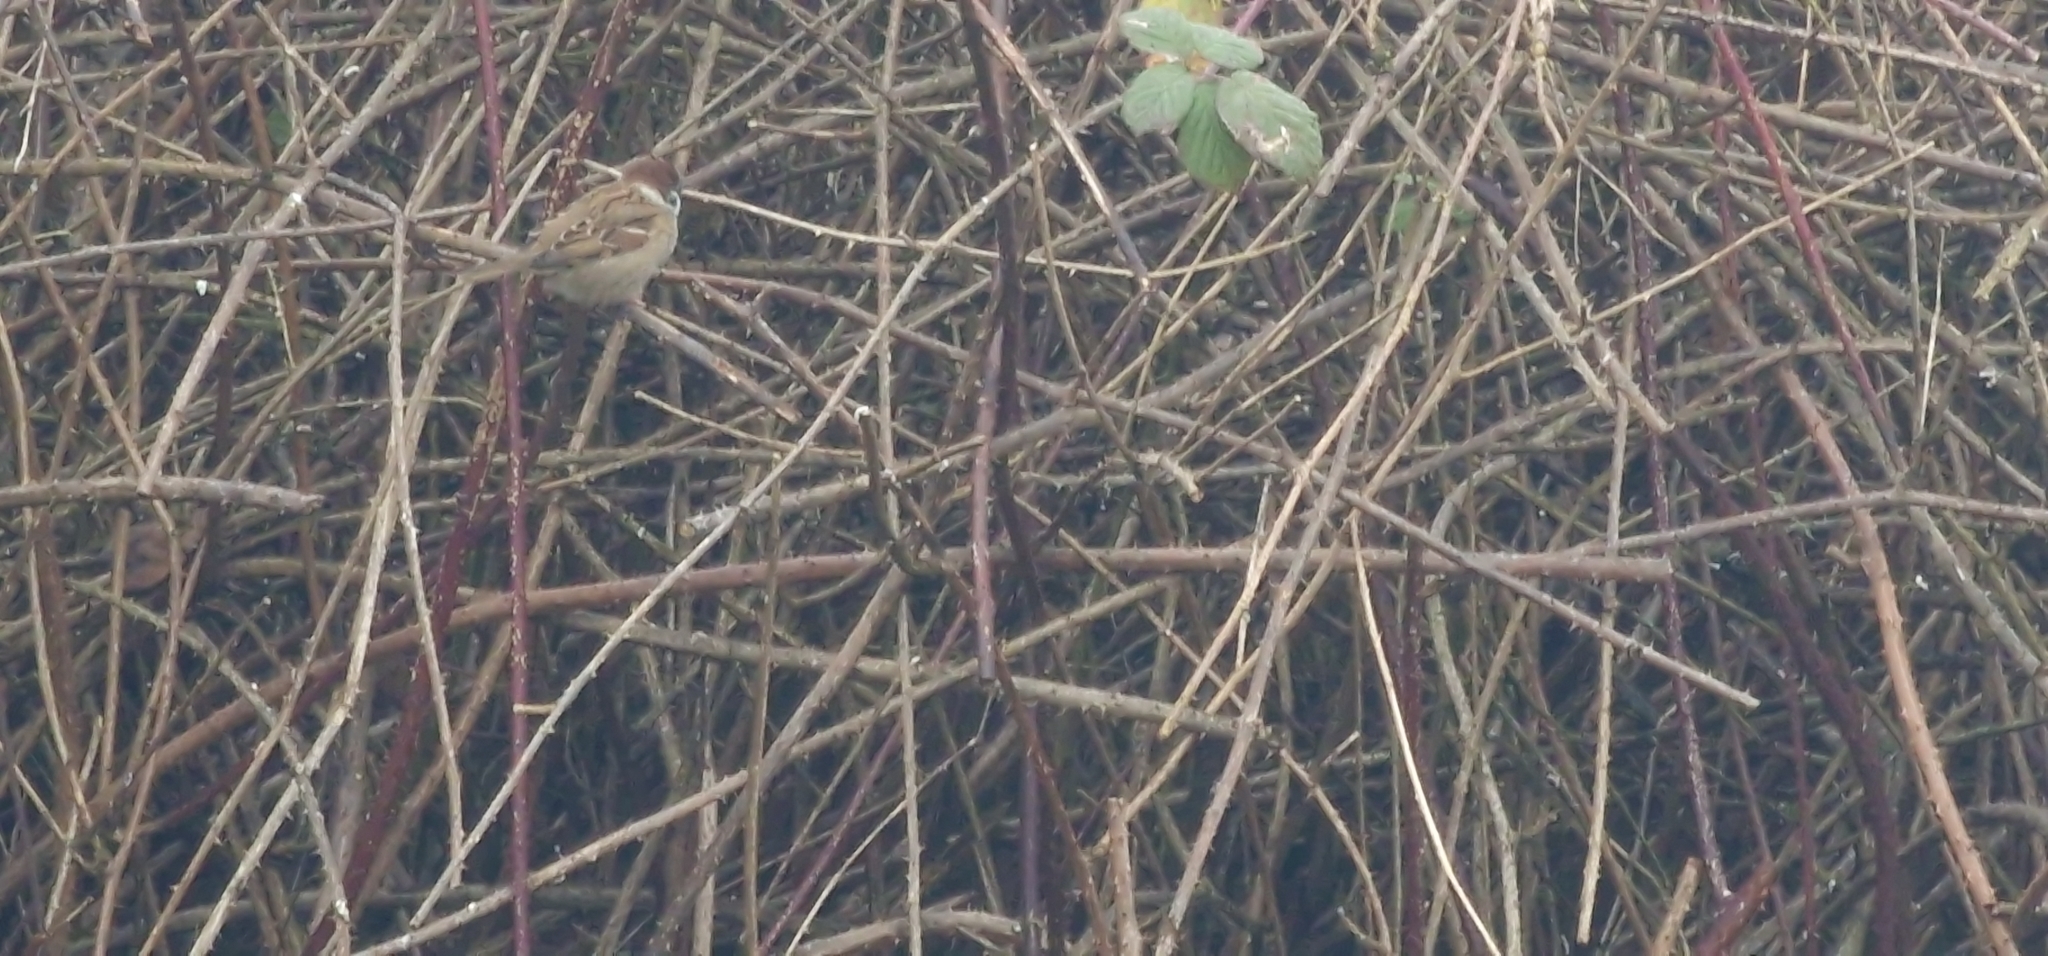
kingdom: Animalia
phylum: Chordata
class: Aves
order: Passeriformes
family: Passeridae
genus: Passer
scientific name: Passer montanus
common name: Eurasian tree sparrow
